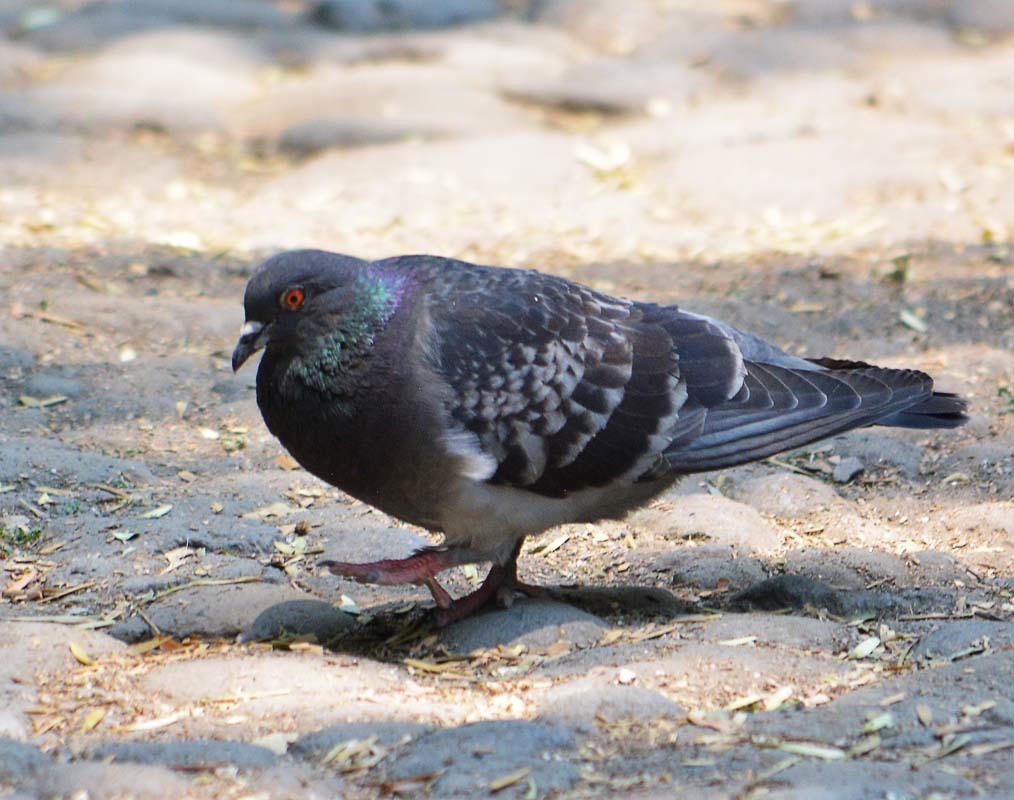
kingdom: Animalia
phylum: Chordata
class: Aves
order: Columbiformes
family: Columbidae
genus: Columba
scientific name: Columba livia
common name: Rock pigeon
